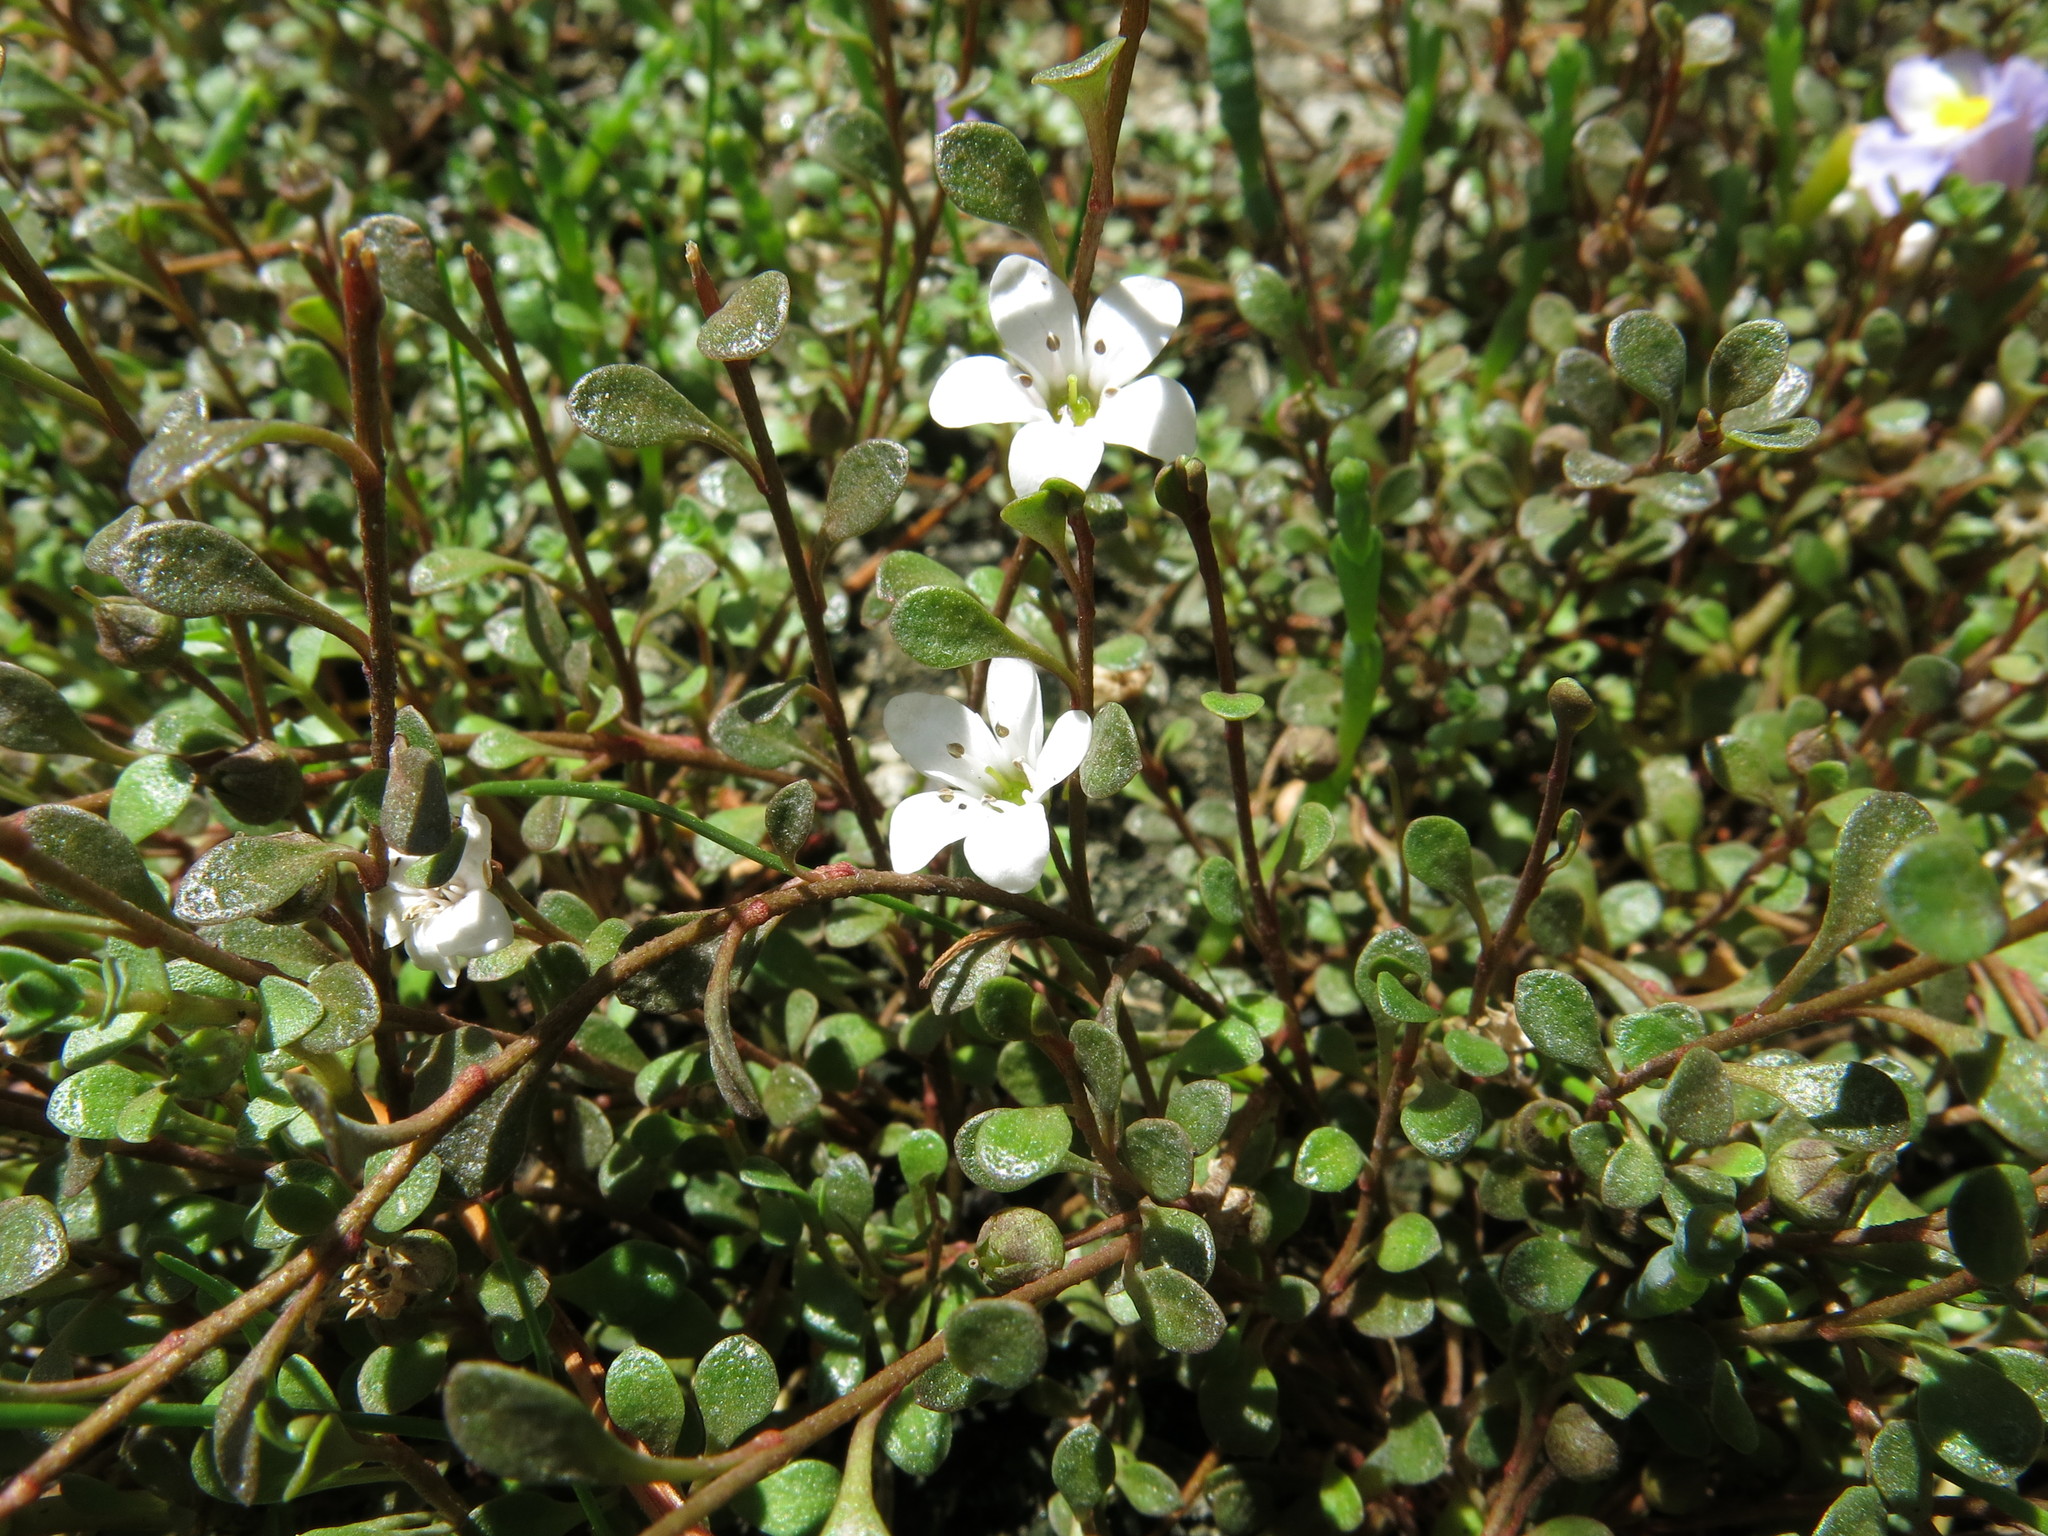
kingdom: Plantae
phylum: Tracheophyta
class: Magnoliopsida
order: Ericales
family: Primulaceae
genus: Samolus
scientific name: Samolus repens
